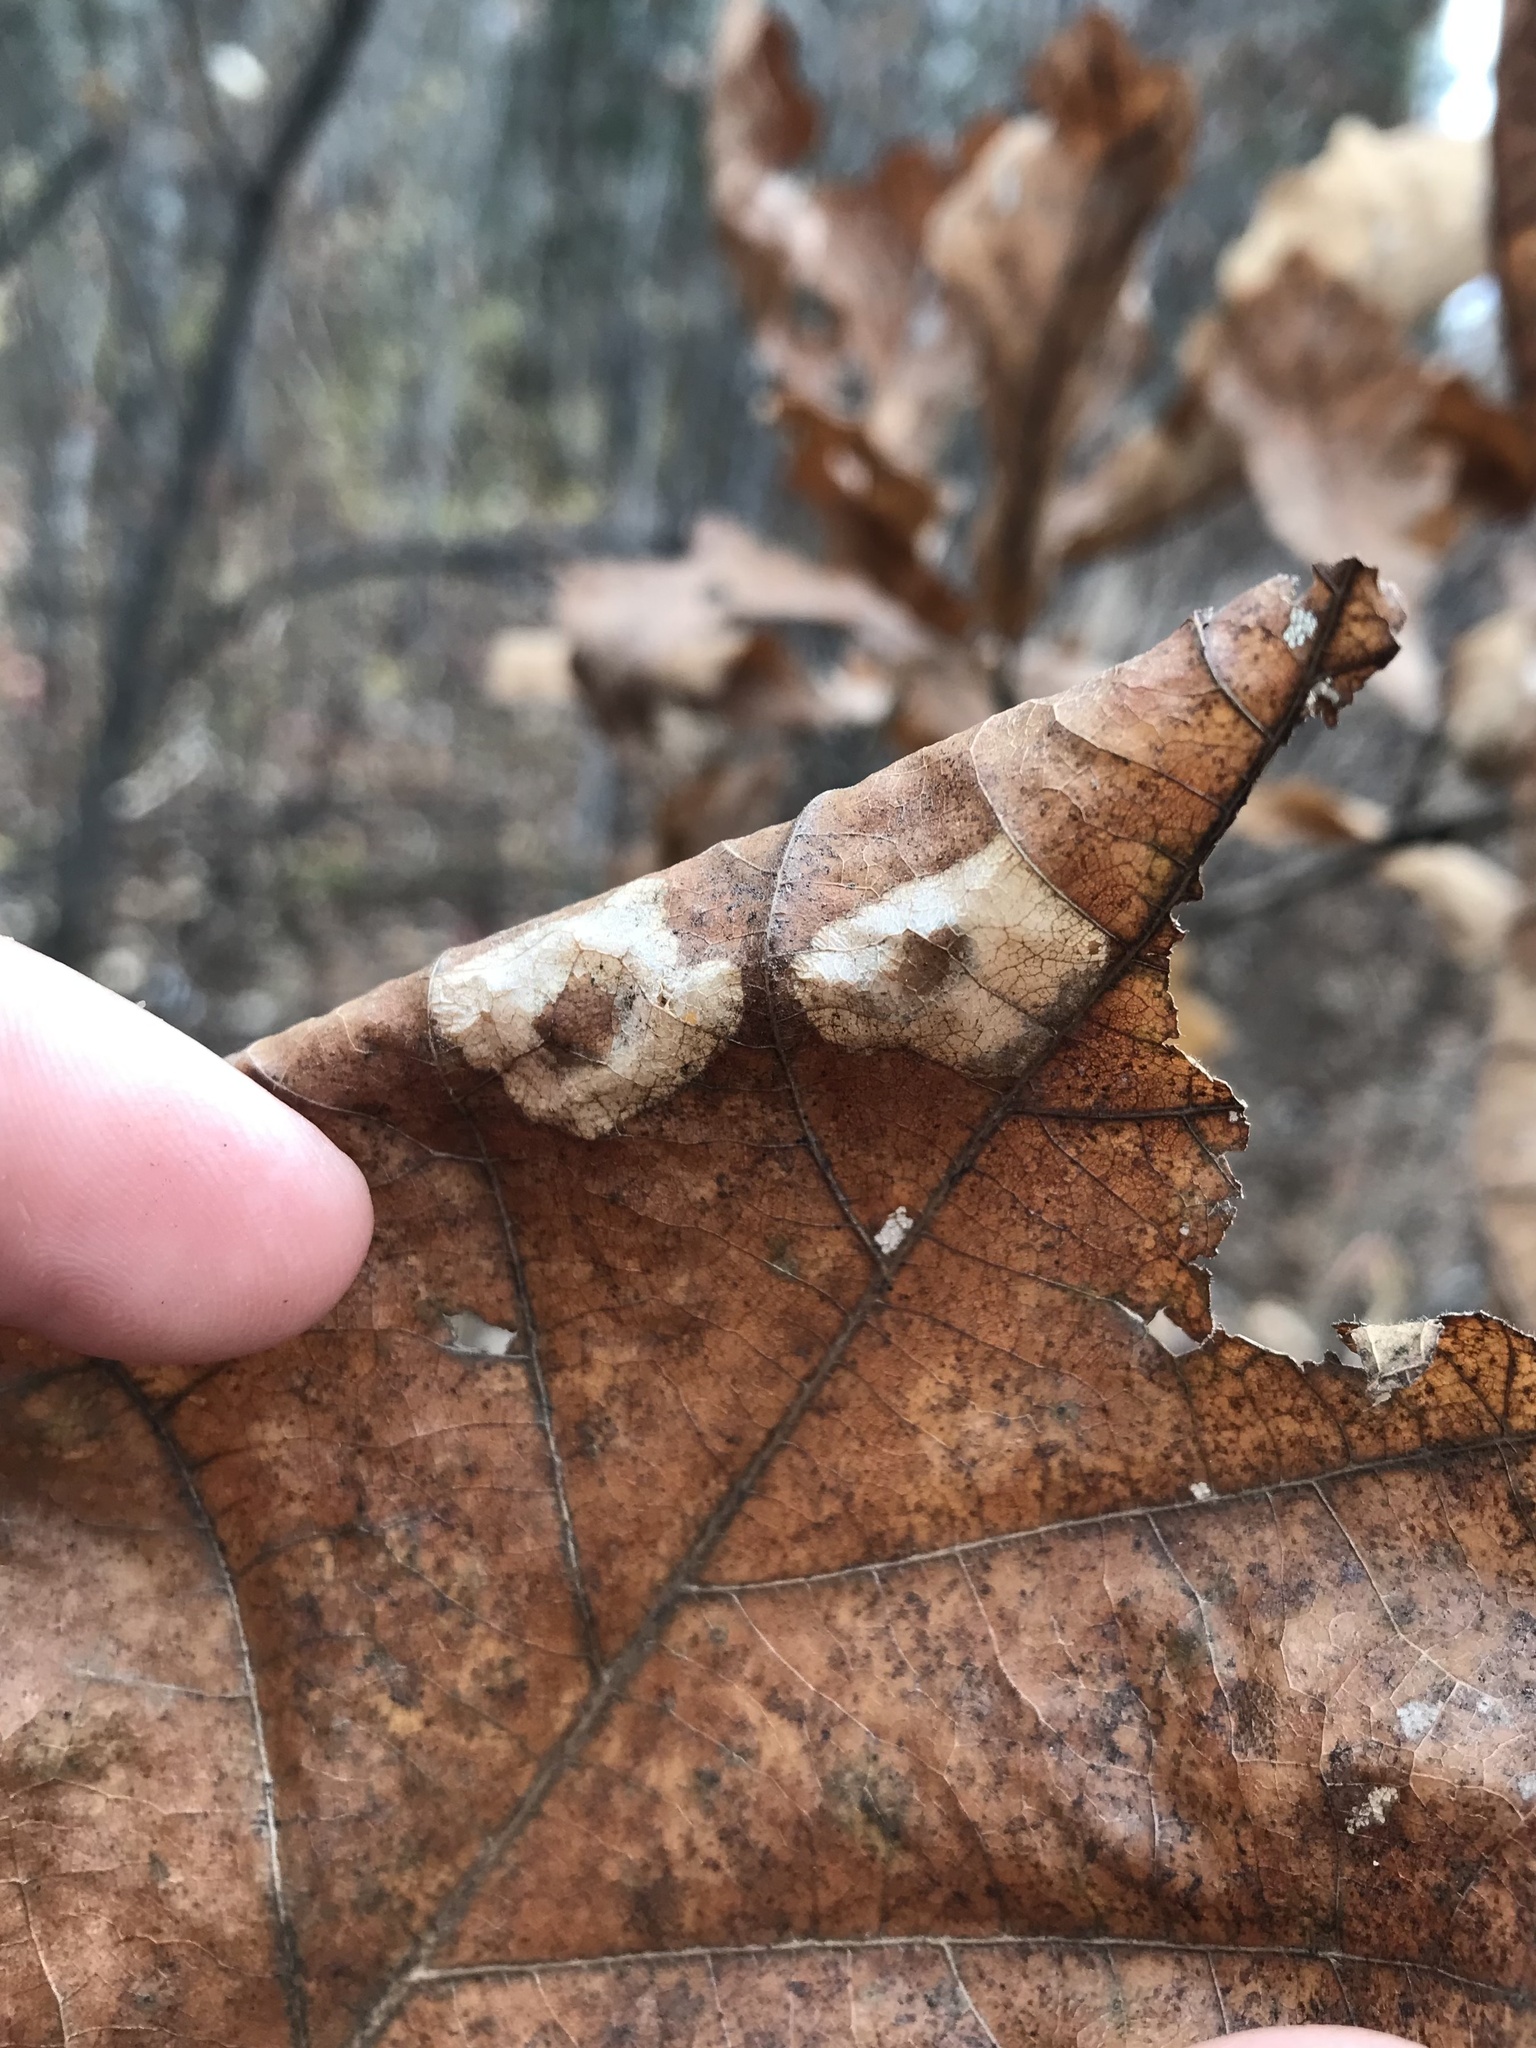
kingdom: Animalia
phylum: Arthropoda
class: Insecta
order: Lepidoptera
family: Gracillariidae
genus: Phyllonorycter
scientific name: Phyllonorycter basistrigella
